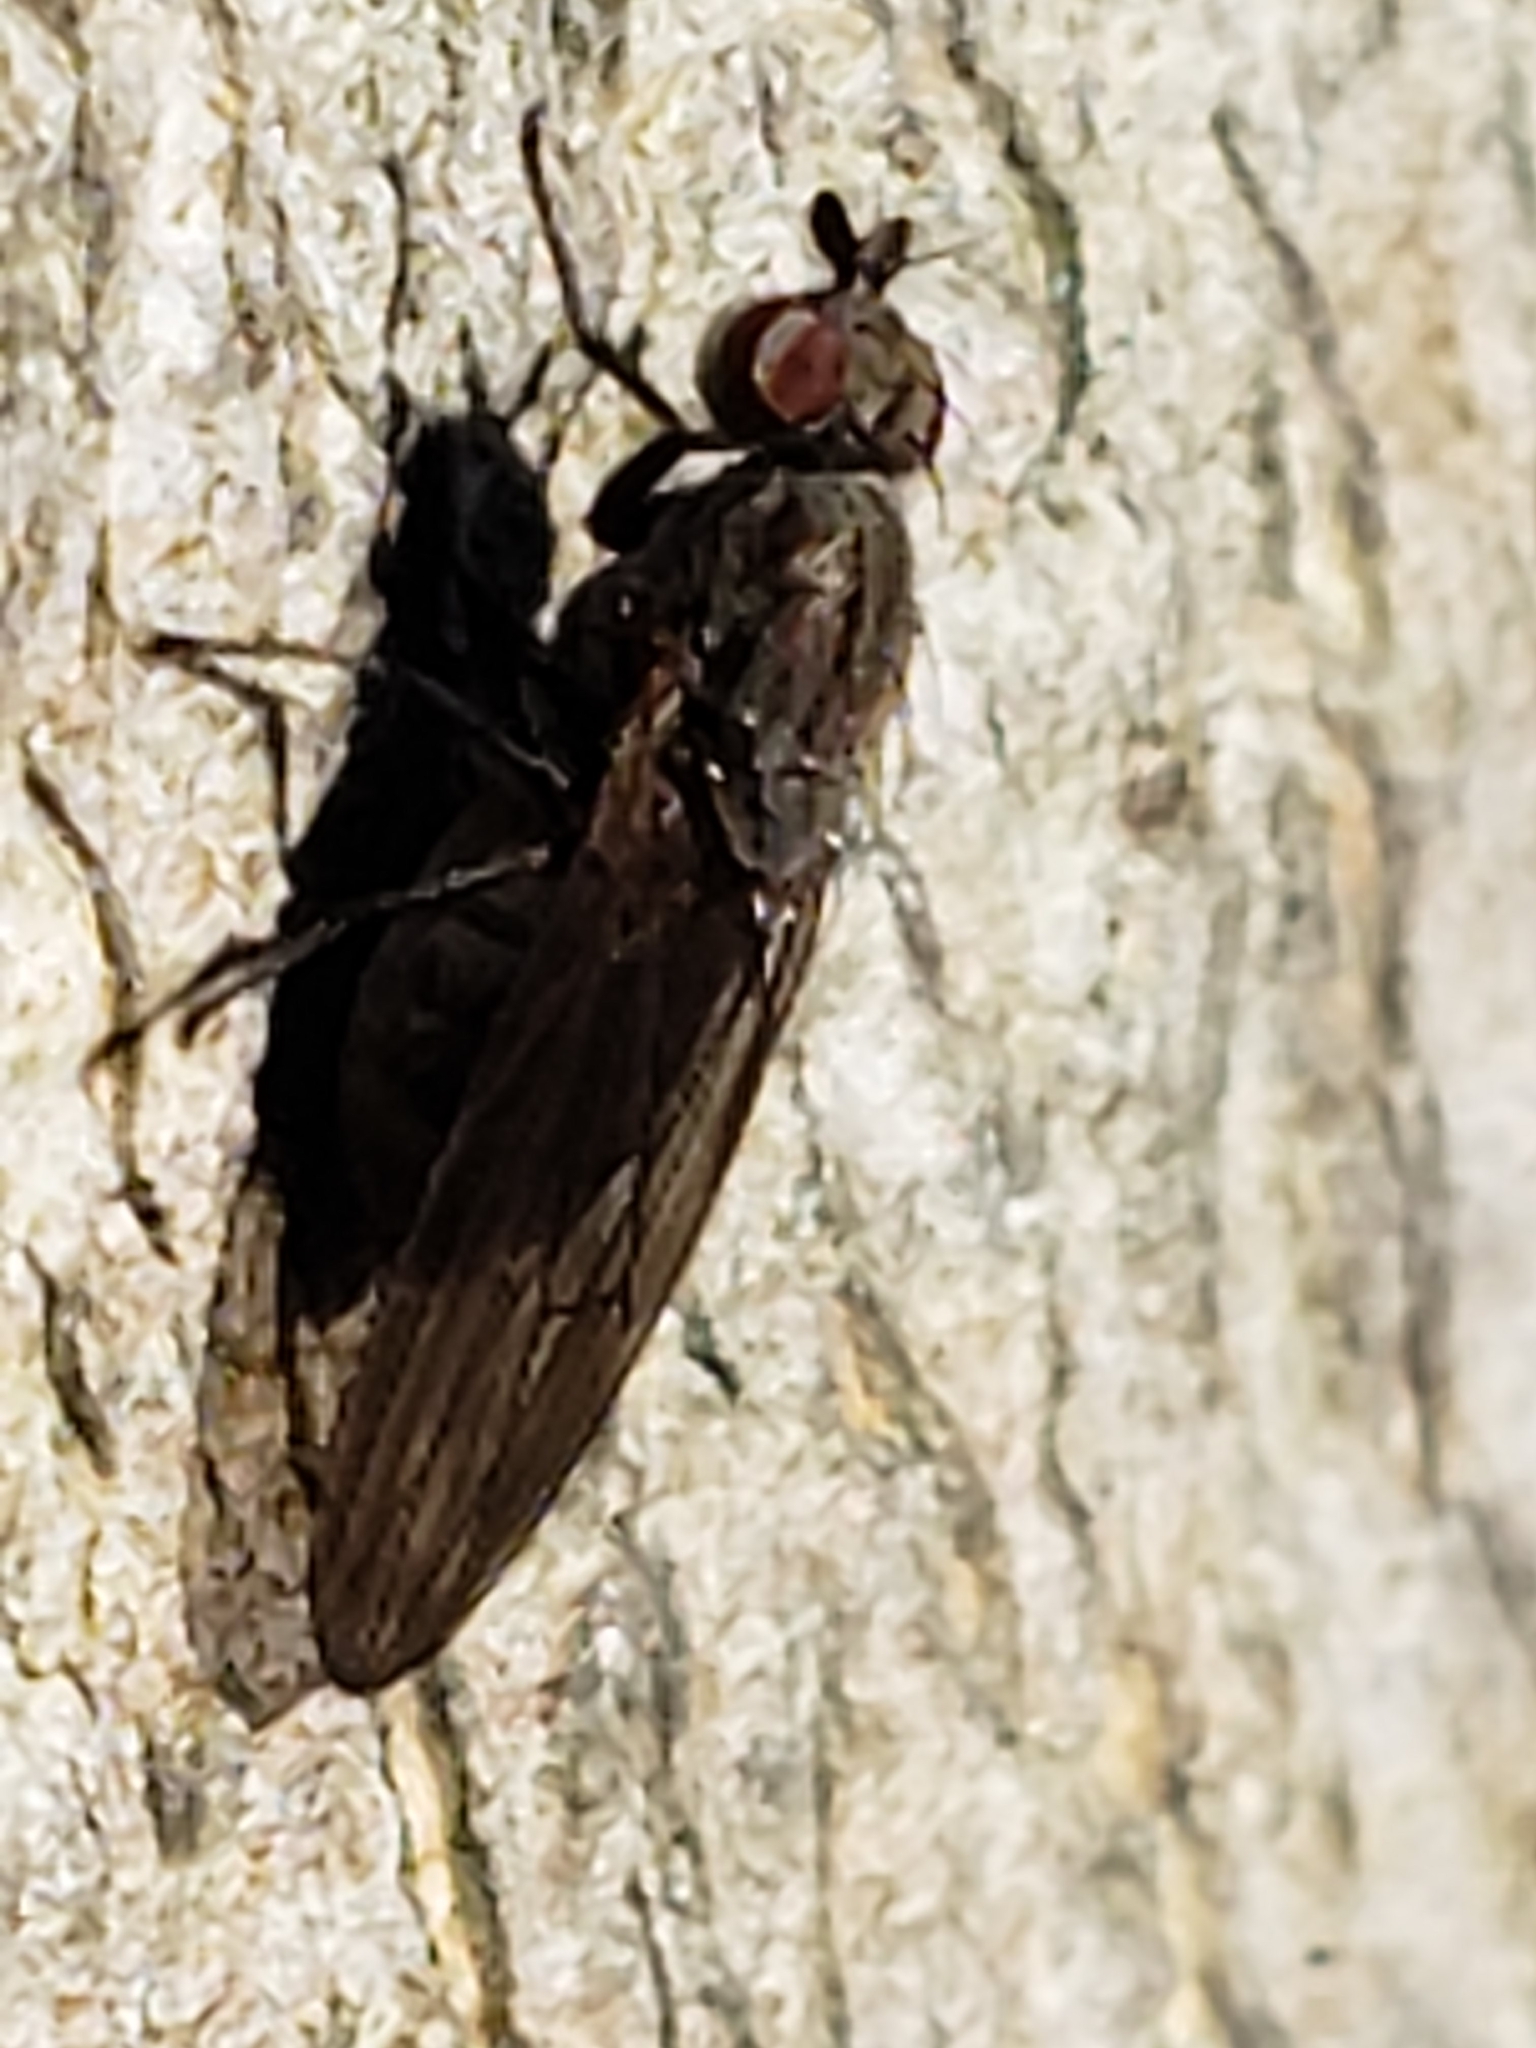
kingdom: Animalia
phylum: Arthropoda
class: Insecta
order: Diptera
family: Lauxaniidae
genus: Sapromyza
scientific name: Sapromyza brachysoma
